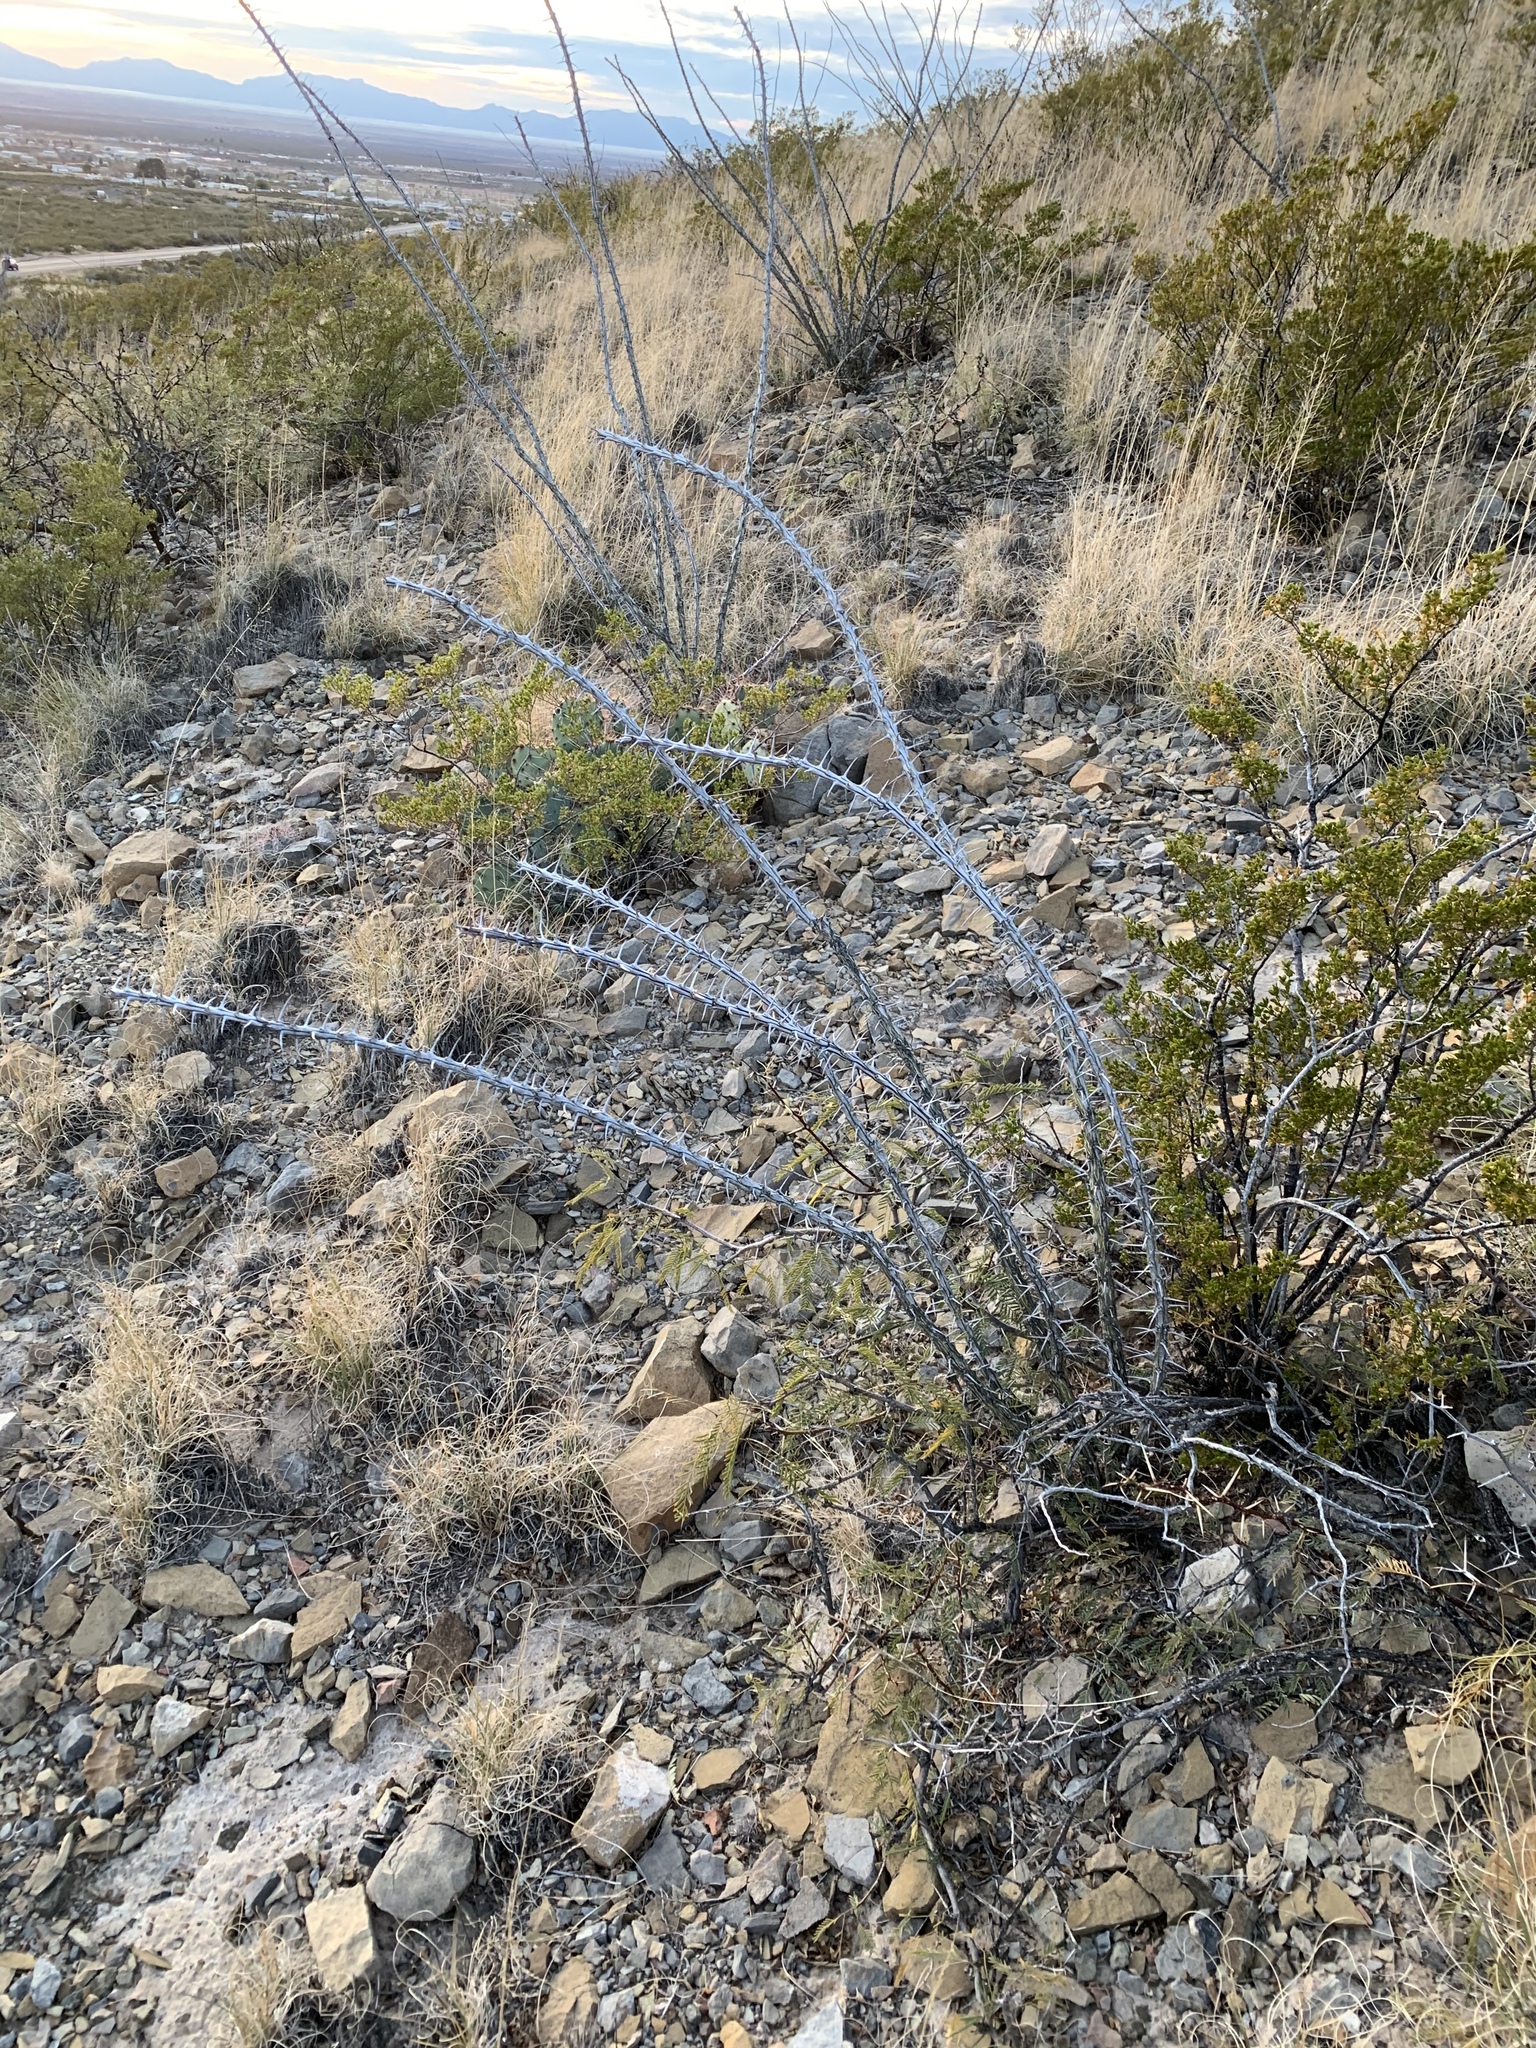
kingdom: Plantae
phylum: Tracheophyta
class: Magnoliopsida
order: Ericales
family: Fouquieriaceae
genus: Fouquieria
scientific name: Fouquieria splendens
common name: Vine-cactus
